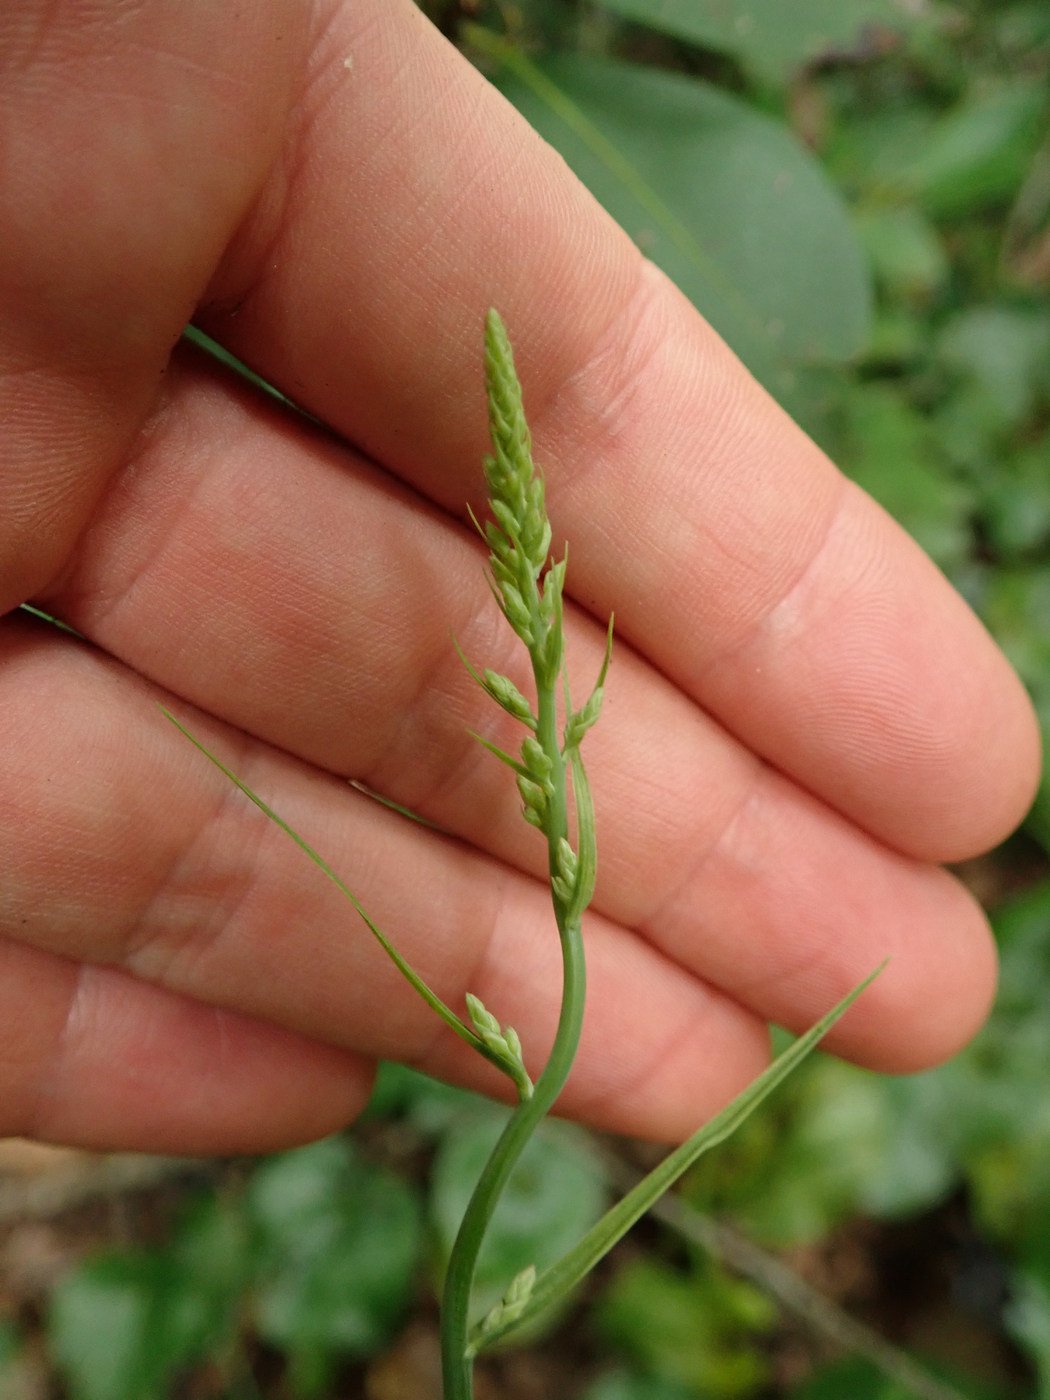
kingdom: Plantae
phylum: Tracheophyta
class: Liliopsida
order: Liliales
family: Melanthiaceae
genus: Stenanthium
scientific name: Stenanthium gramineum
